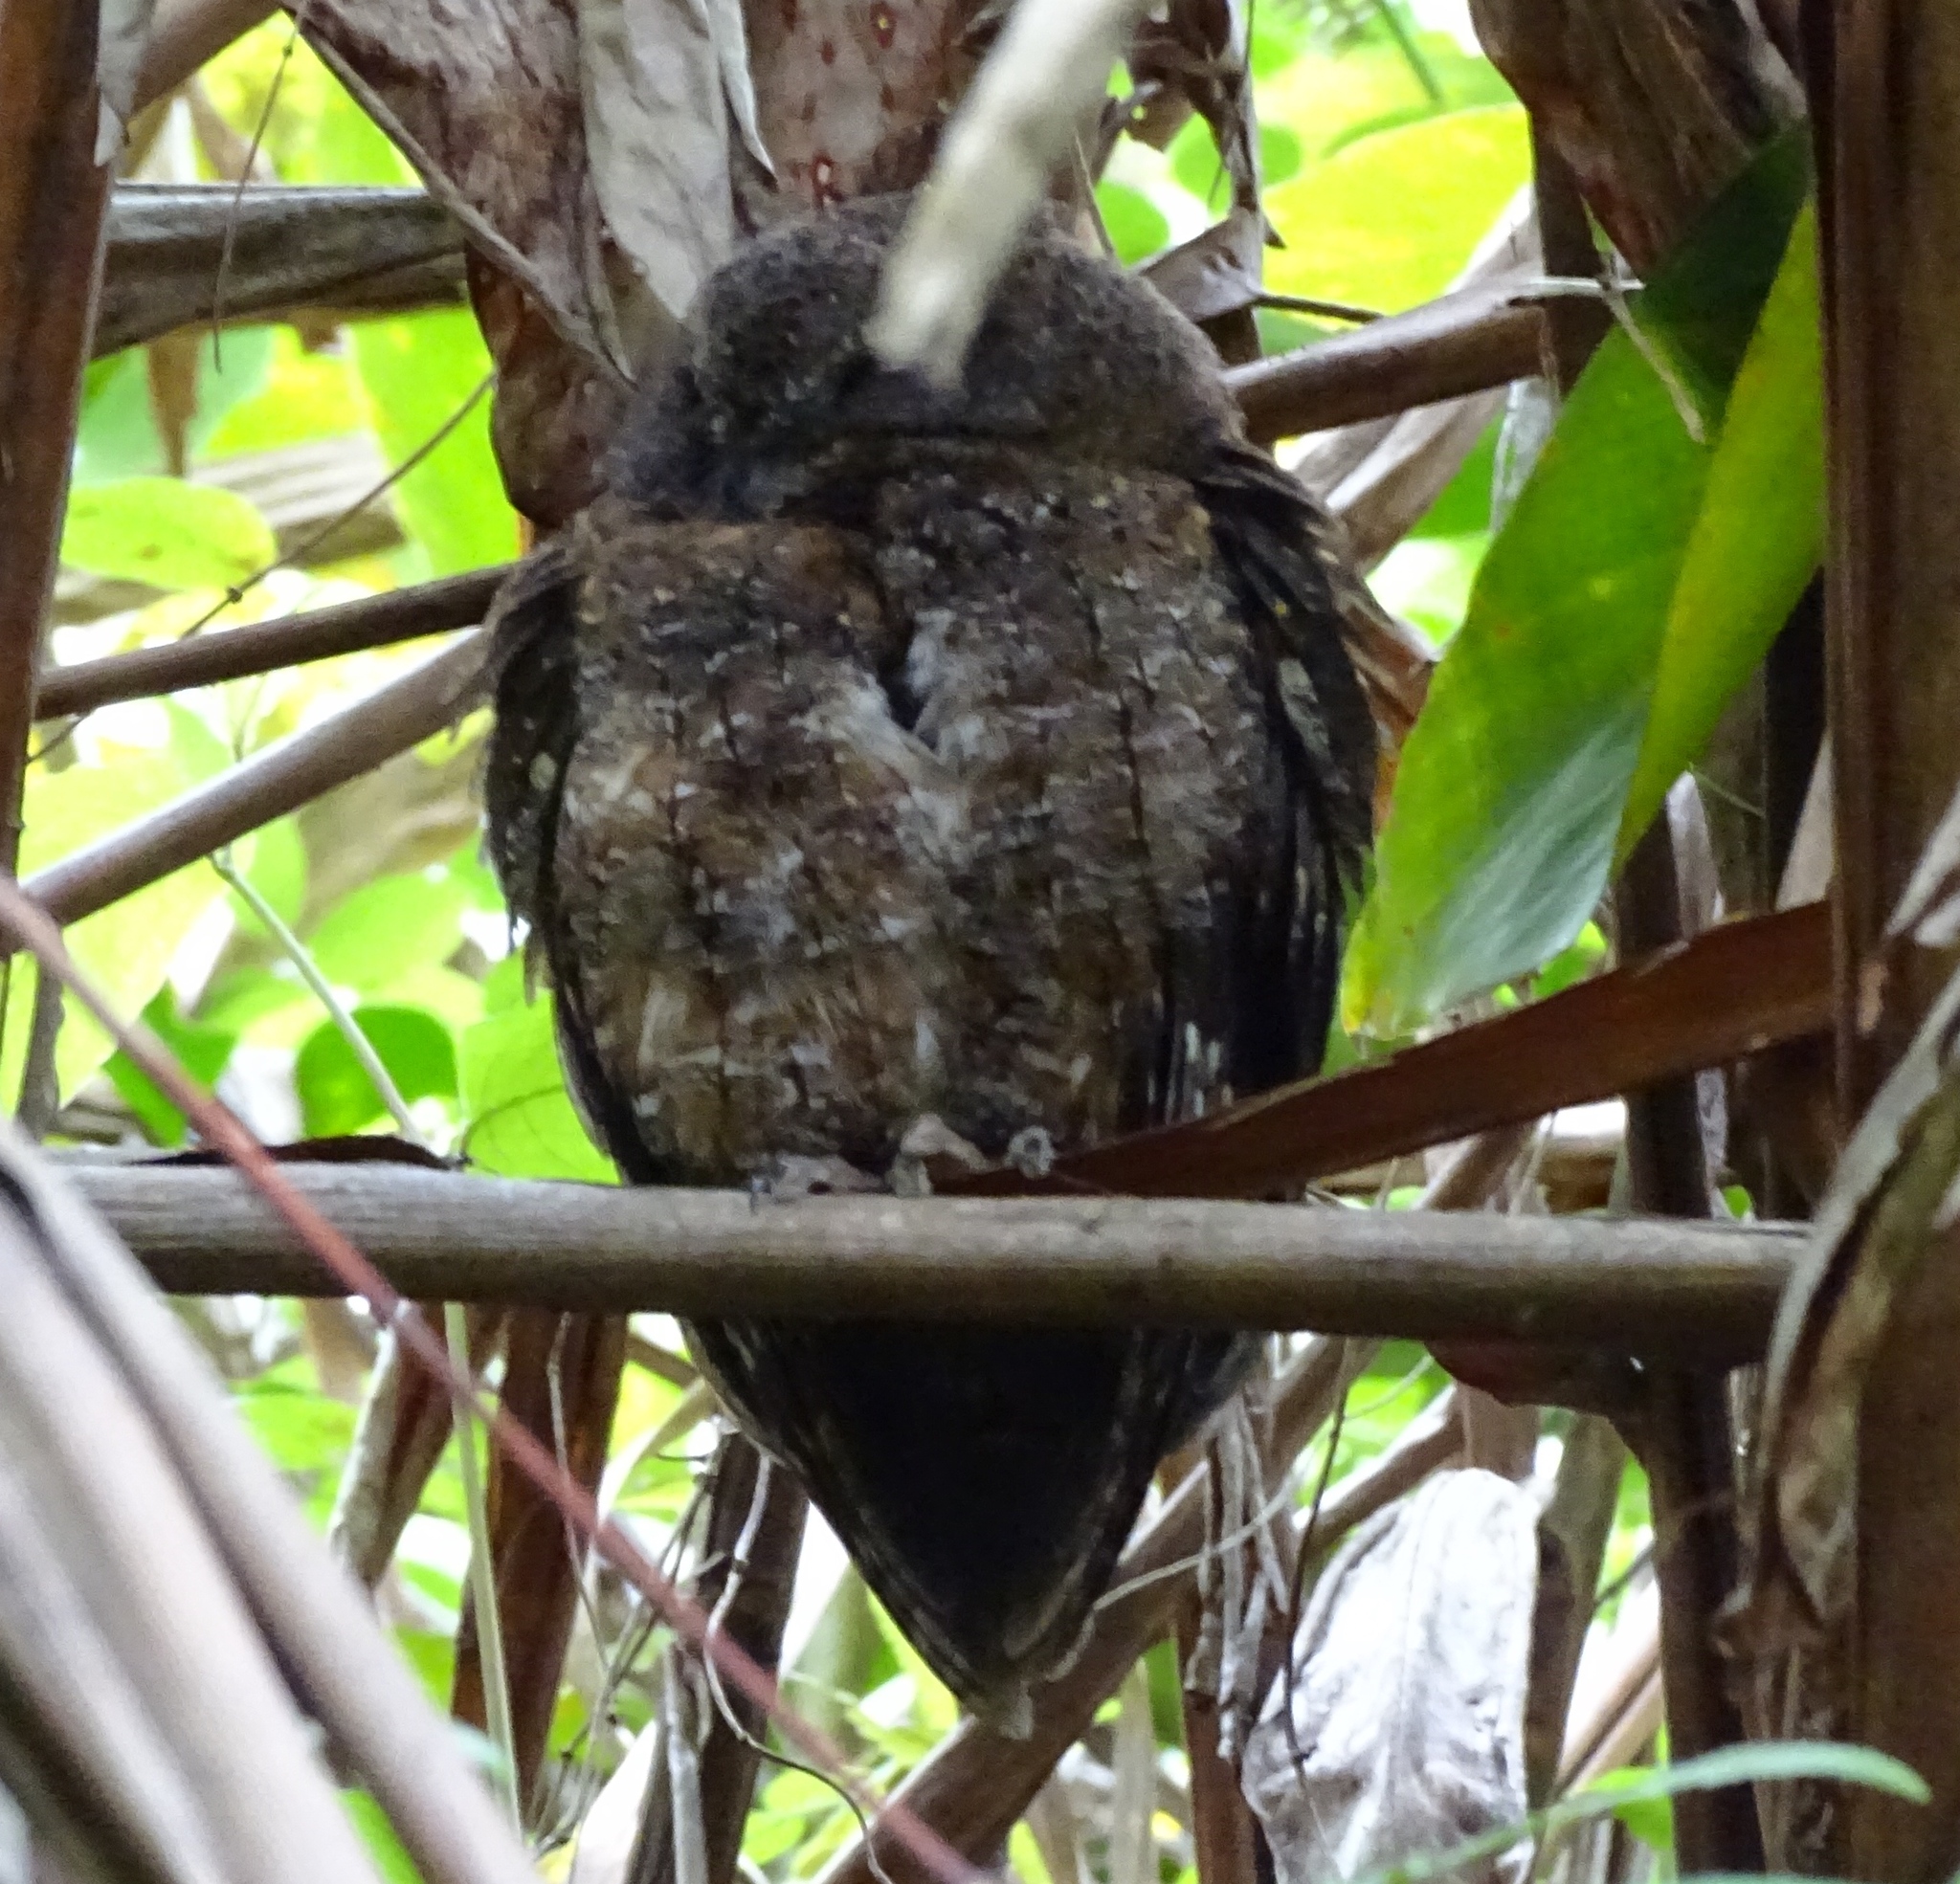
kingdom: Animalia
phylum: Chordata
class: Aves
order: Strigiformes
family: Strigidae
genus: Otus
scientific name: Otus rutilus
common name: Rainforest scops owl
